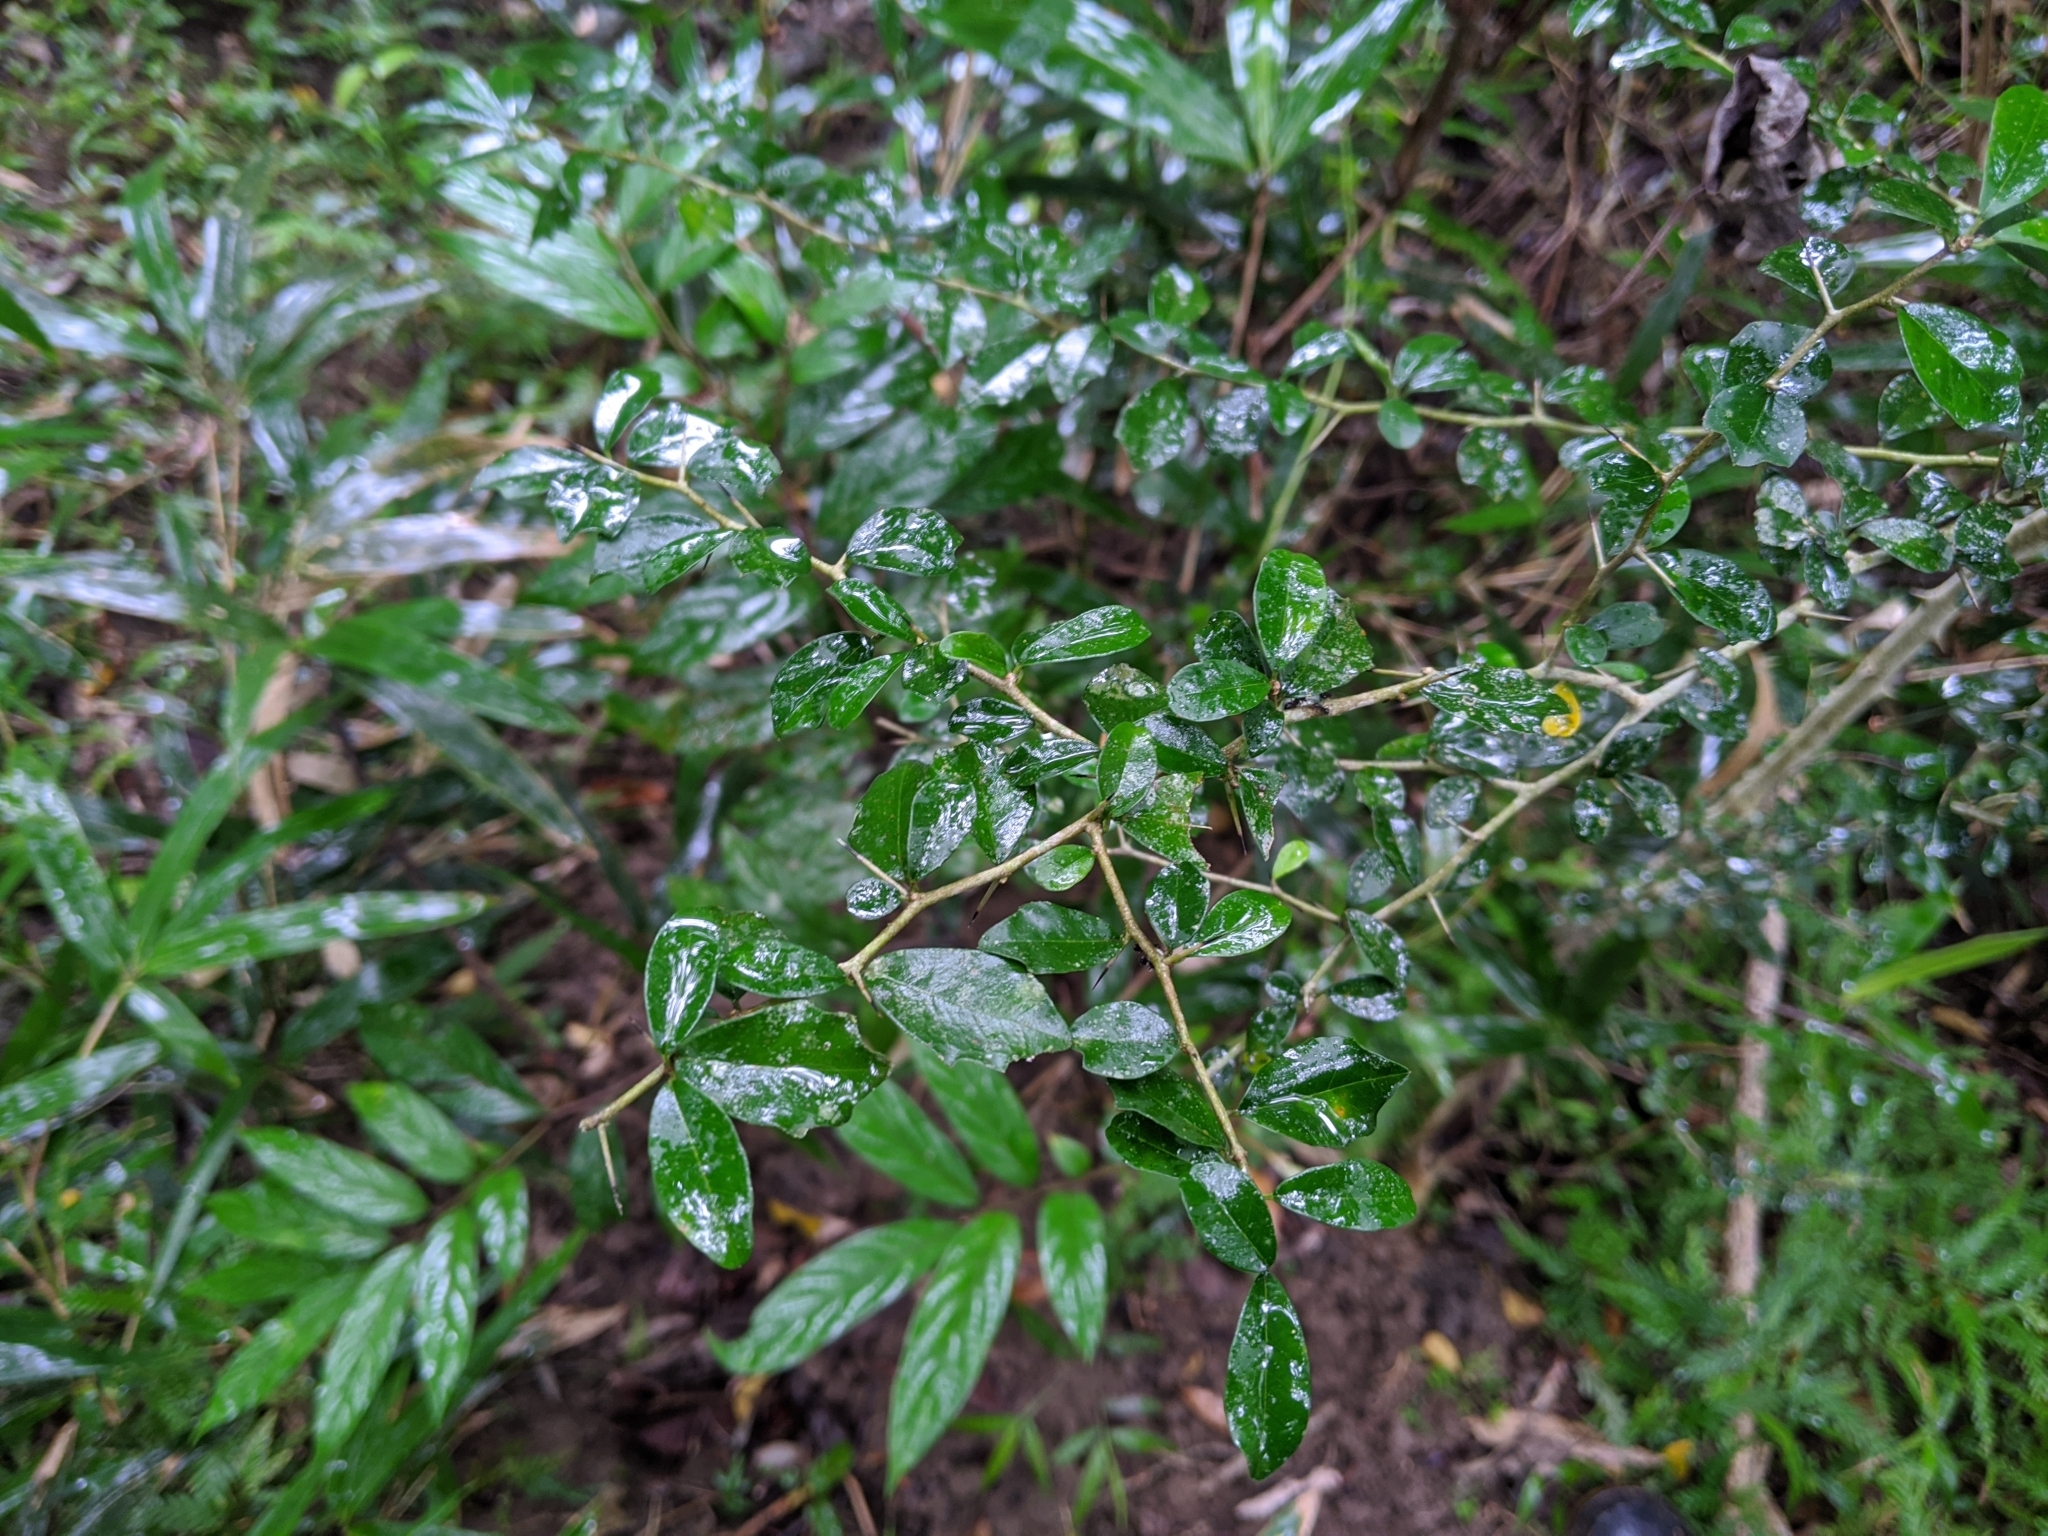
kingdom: Plantae
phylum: Tracheophyta
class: Magnoliopsida
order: Rosales
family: Moraceae
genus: Maclura
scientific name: Maclura cochinchinensis
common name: Cockspurthorn
